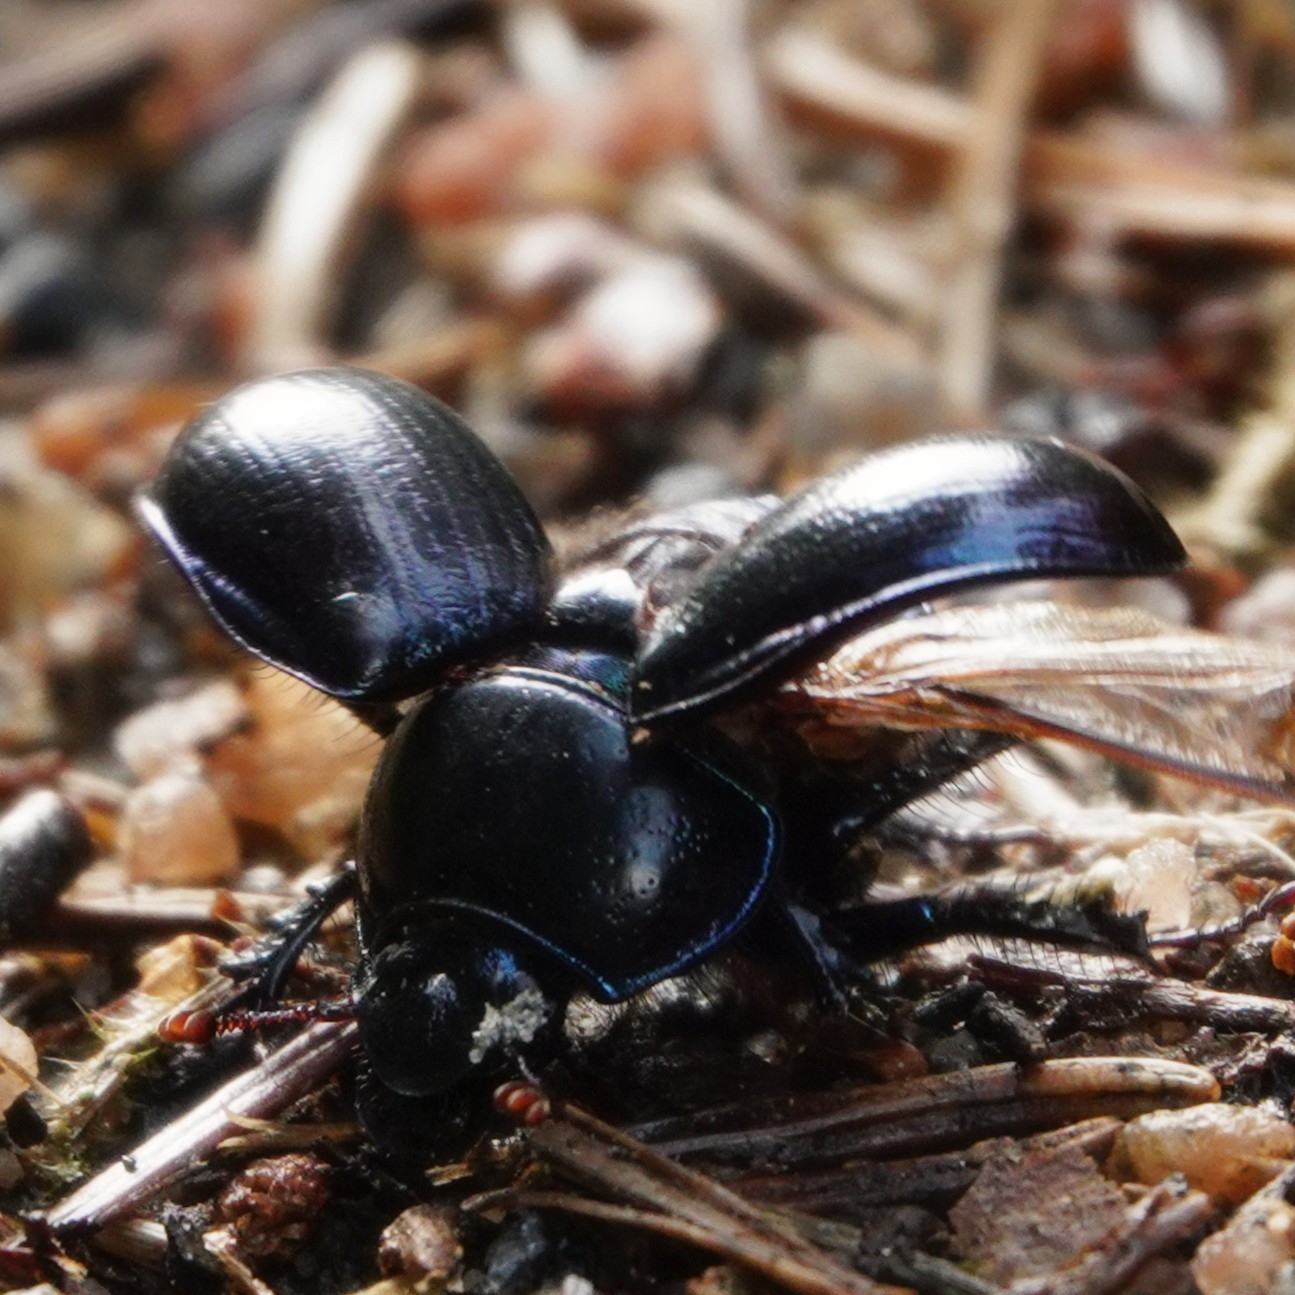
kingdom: Animalia
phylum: Arthropoda
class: Insecta
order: Coleoptera
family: Geotrupidae
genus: Anoplotrupes
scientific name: Anoplotrupes stercorosus
